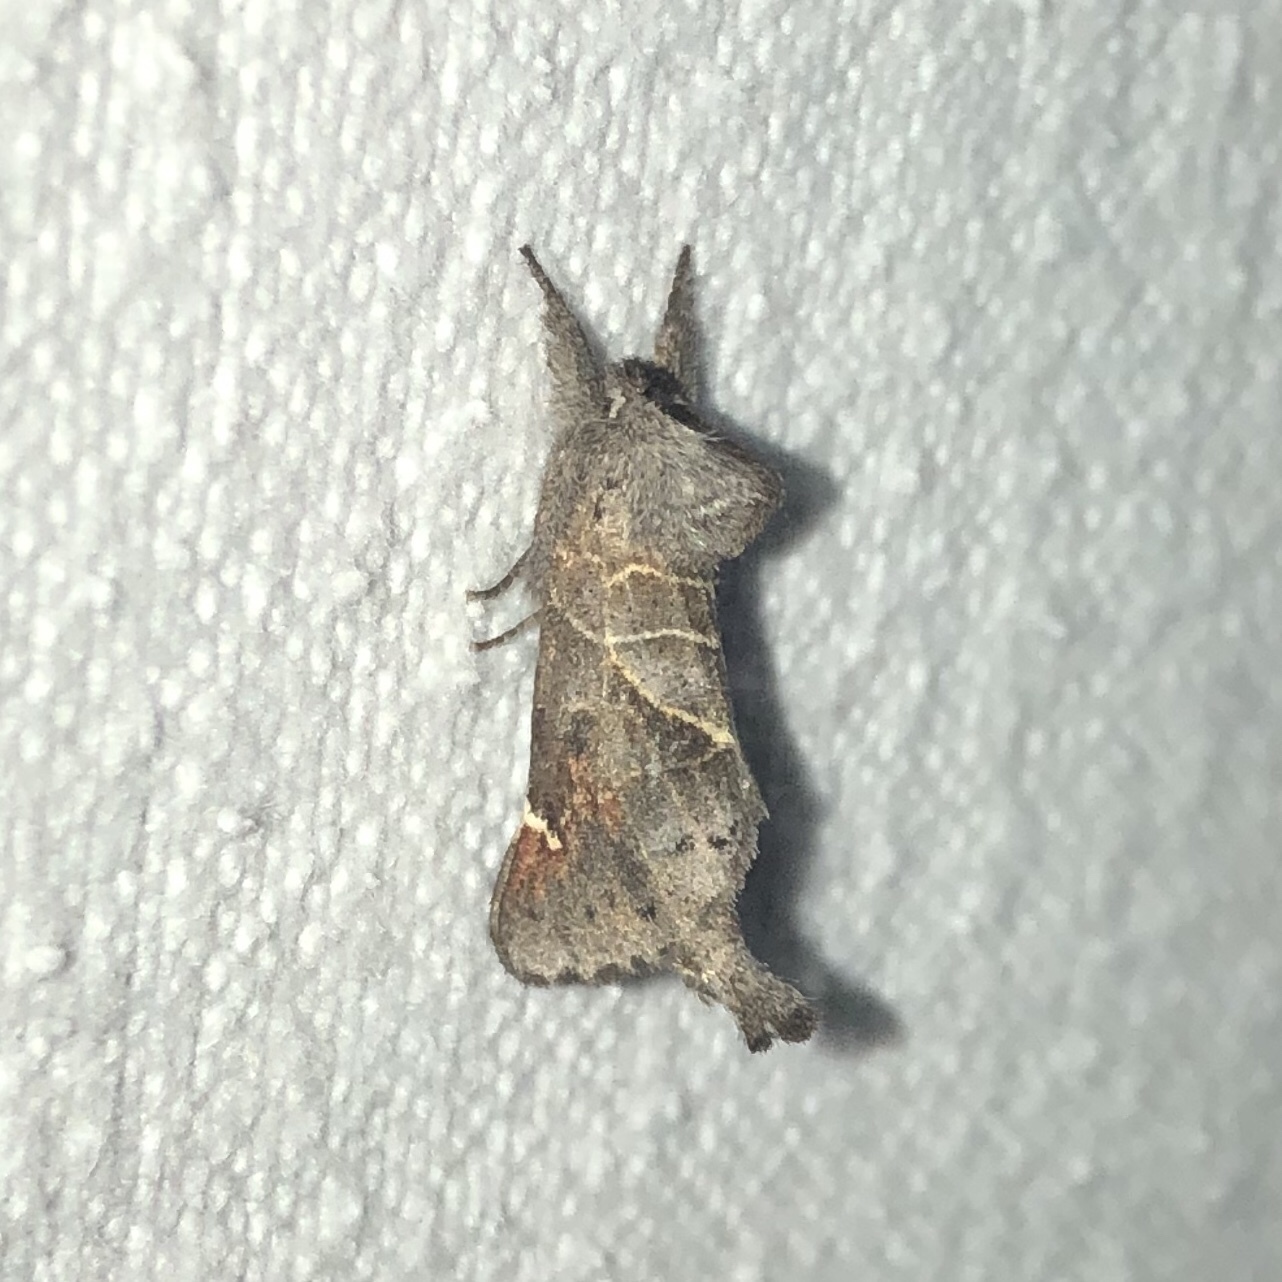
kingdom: Animalia
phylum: Arthropoda
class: Insecta
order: Lepidoptera
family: Notodontidae
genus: Clostera
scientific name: Clostera apicalis
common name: Apical prominent
